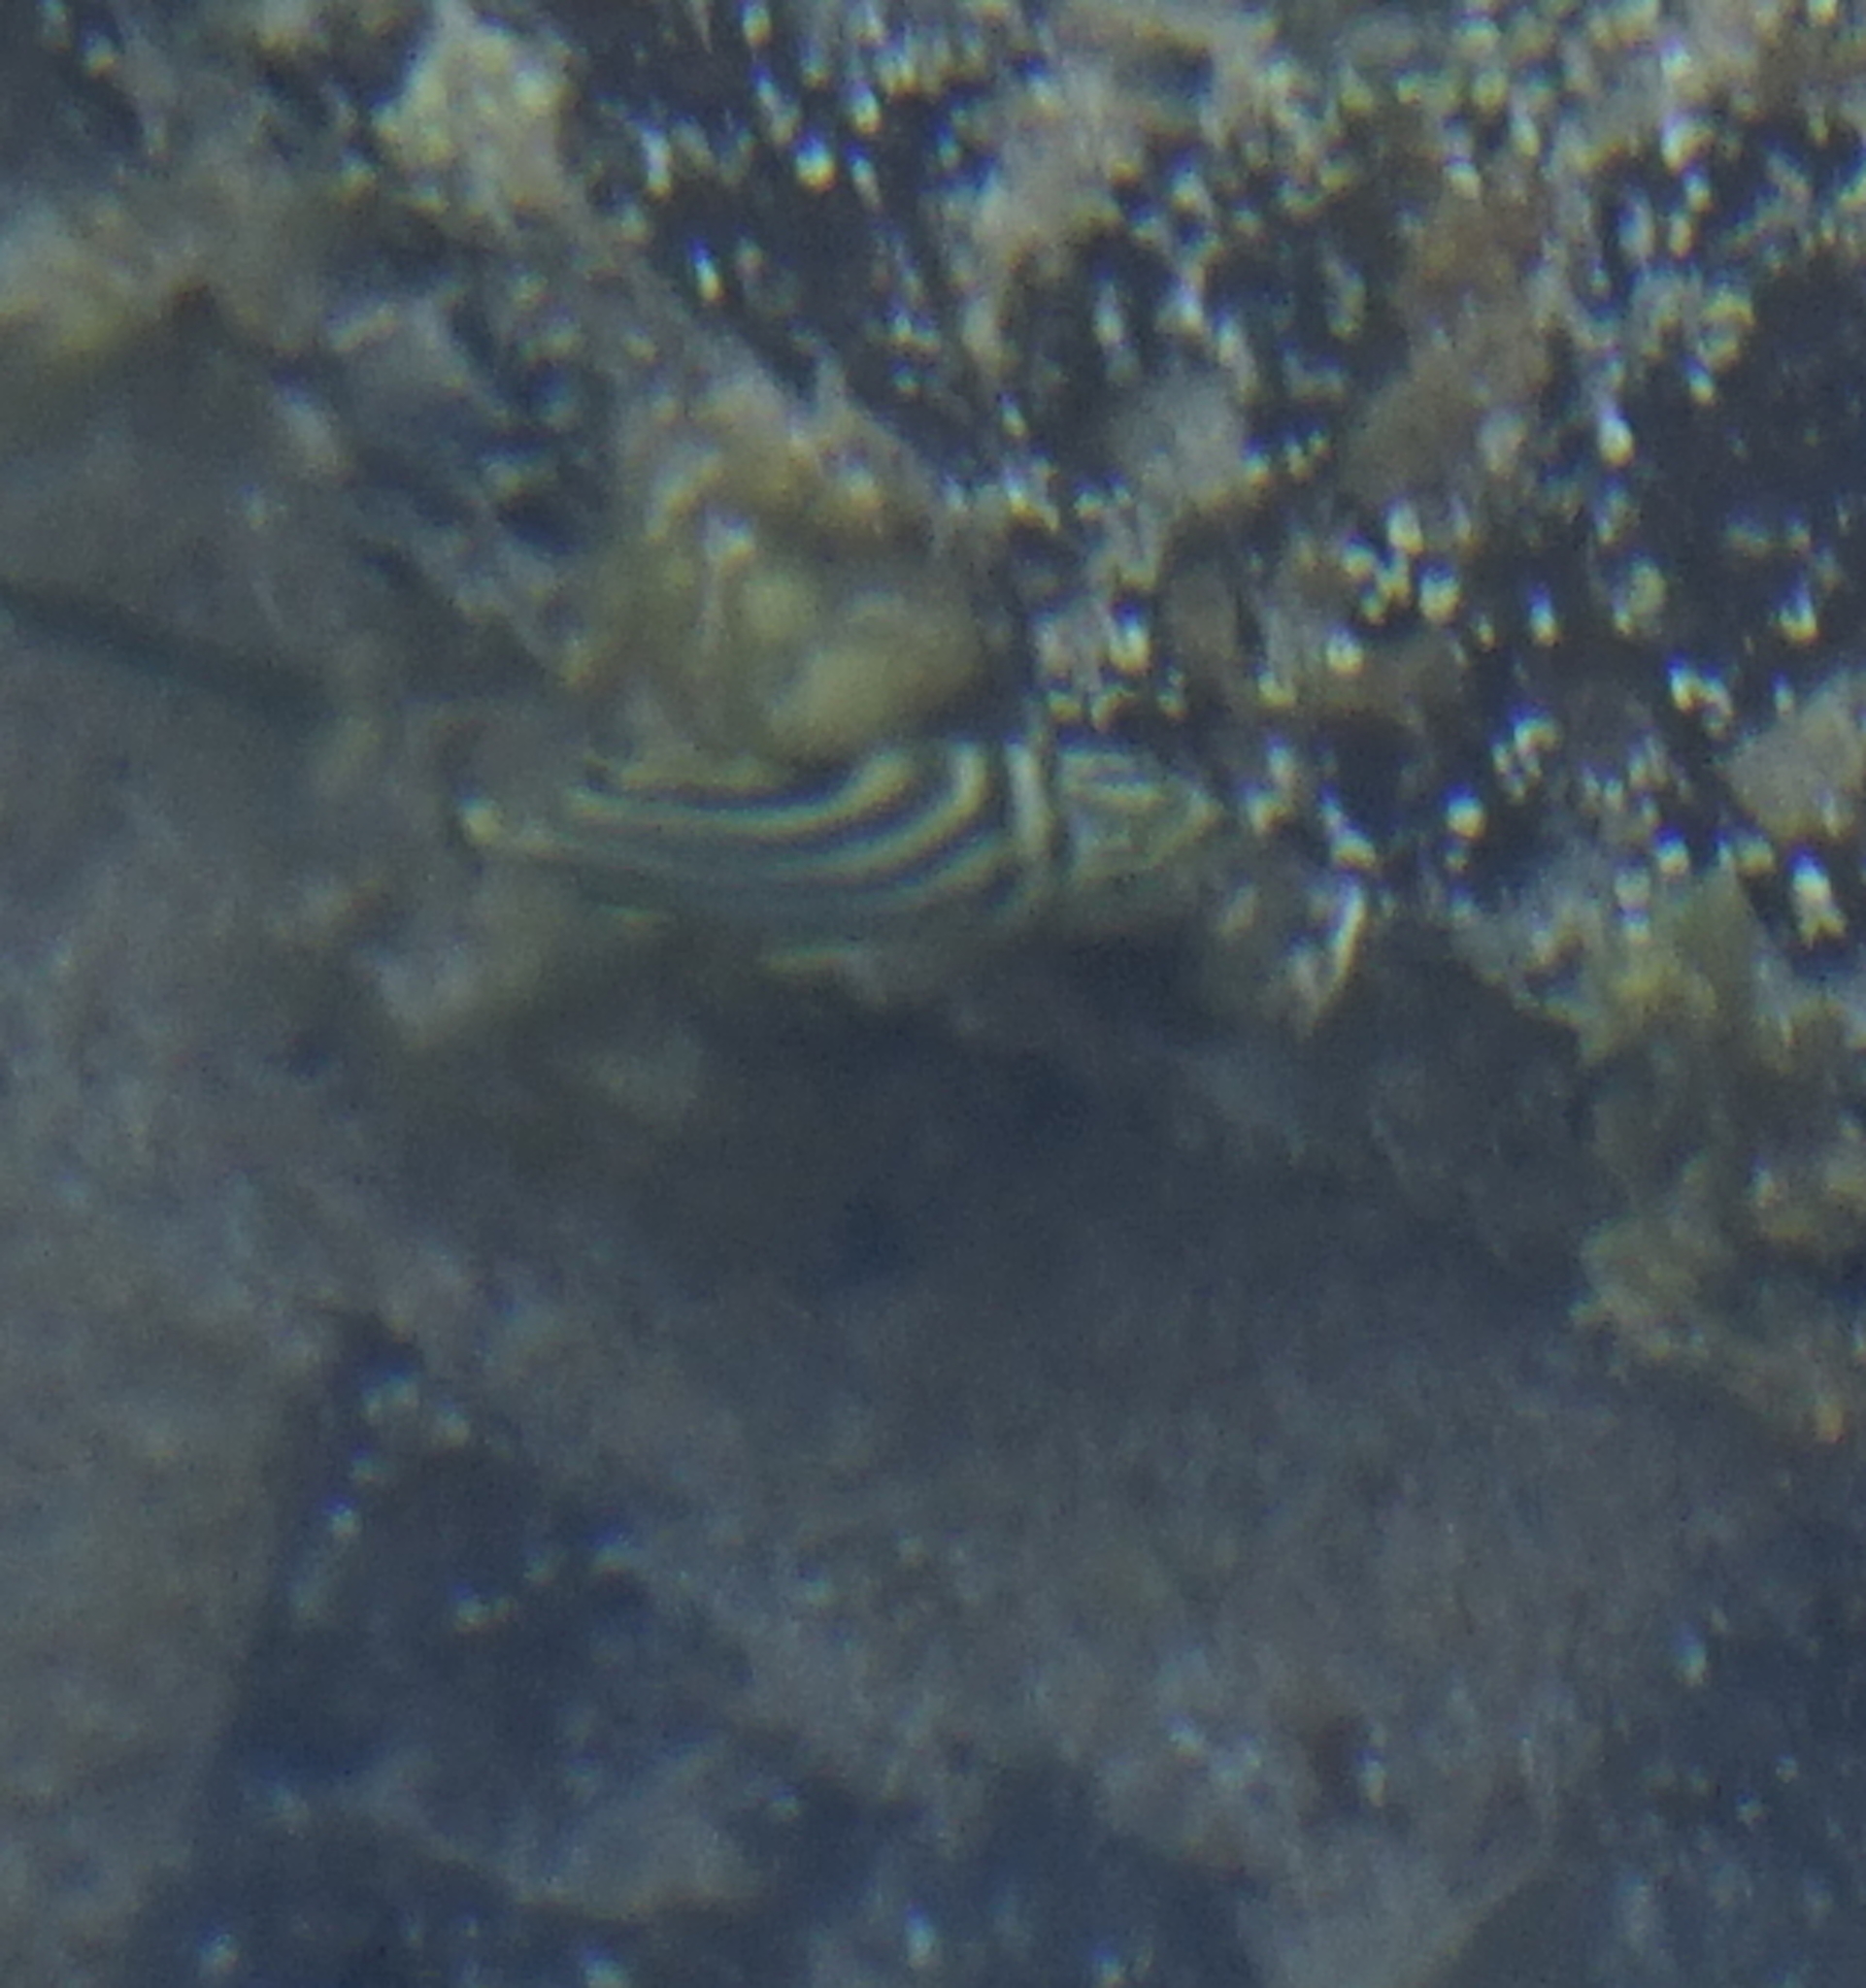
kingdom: Animalia
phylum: Chordata
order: Perciformes
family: Kyphosidae
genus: Microcanthus
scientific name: Microcanthus joyceae
